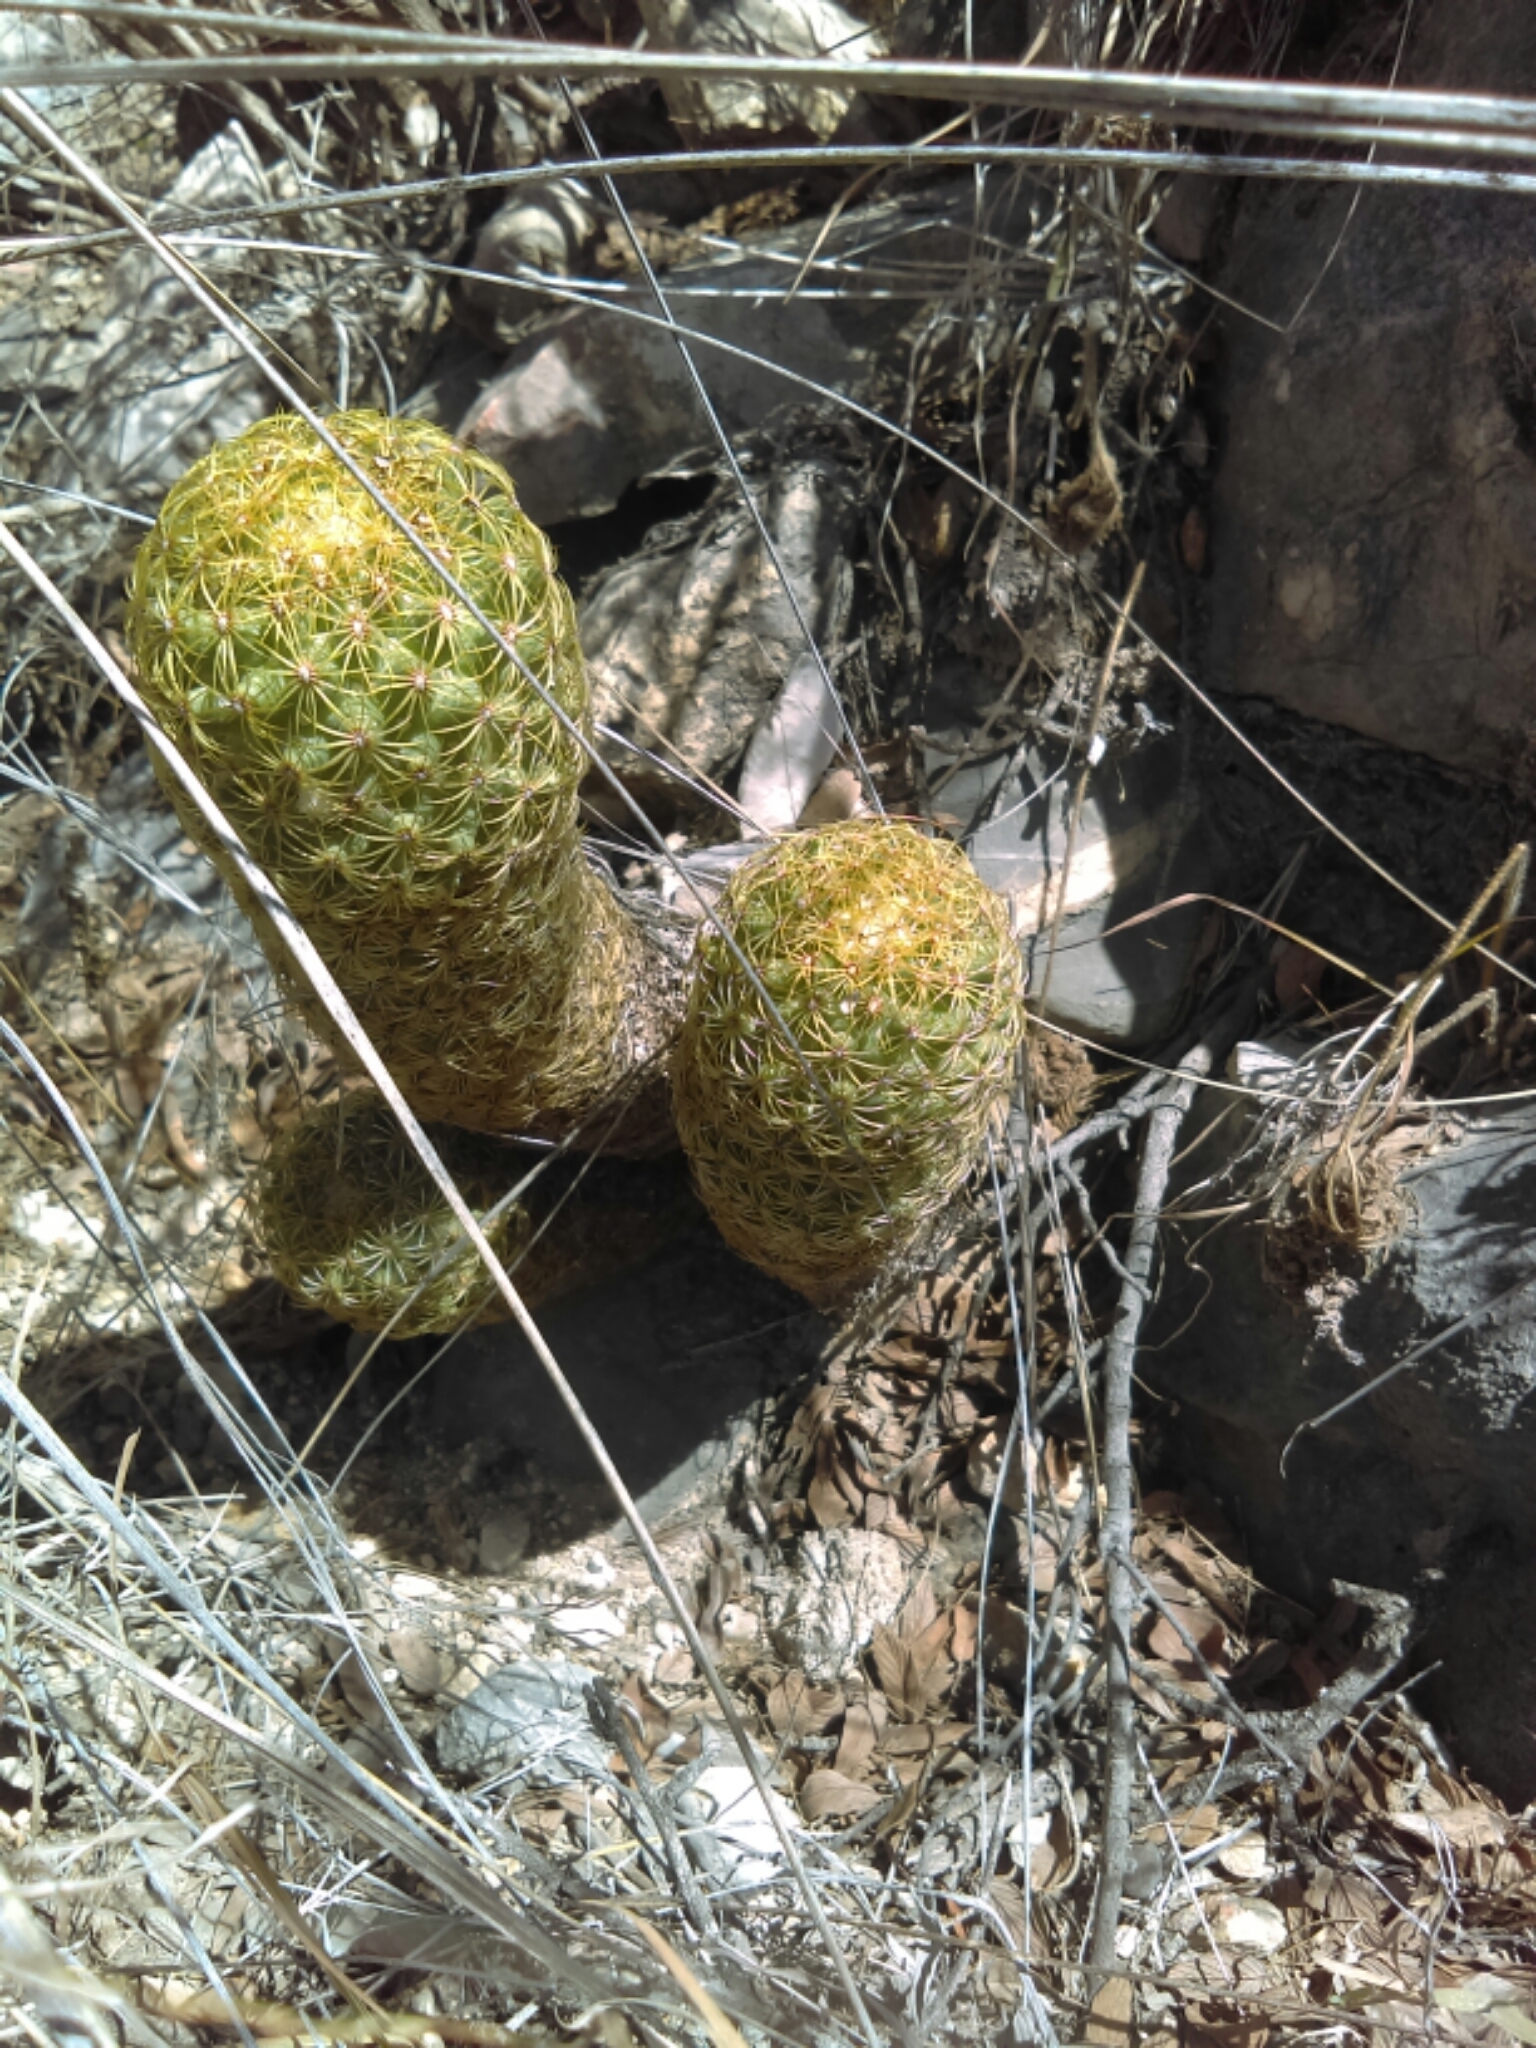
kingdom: Plantae
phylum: Tracheophyta
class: Magnoliopsida
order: Caryophyllales
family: Cactaceae
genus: Coryphantha
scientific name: Coryphantha erecta
